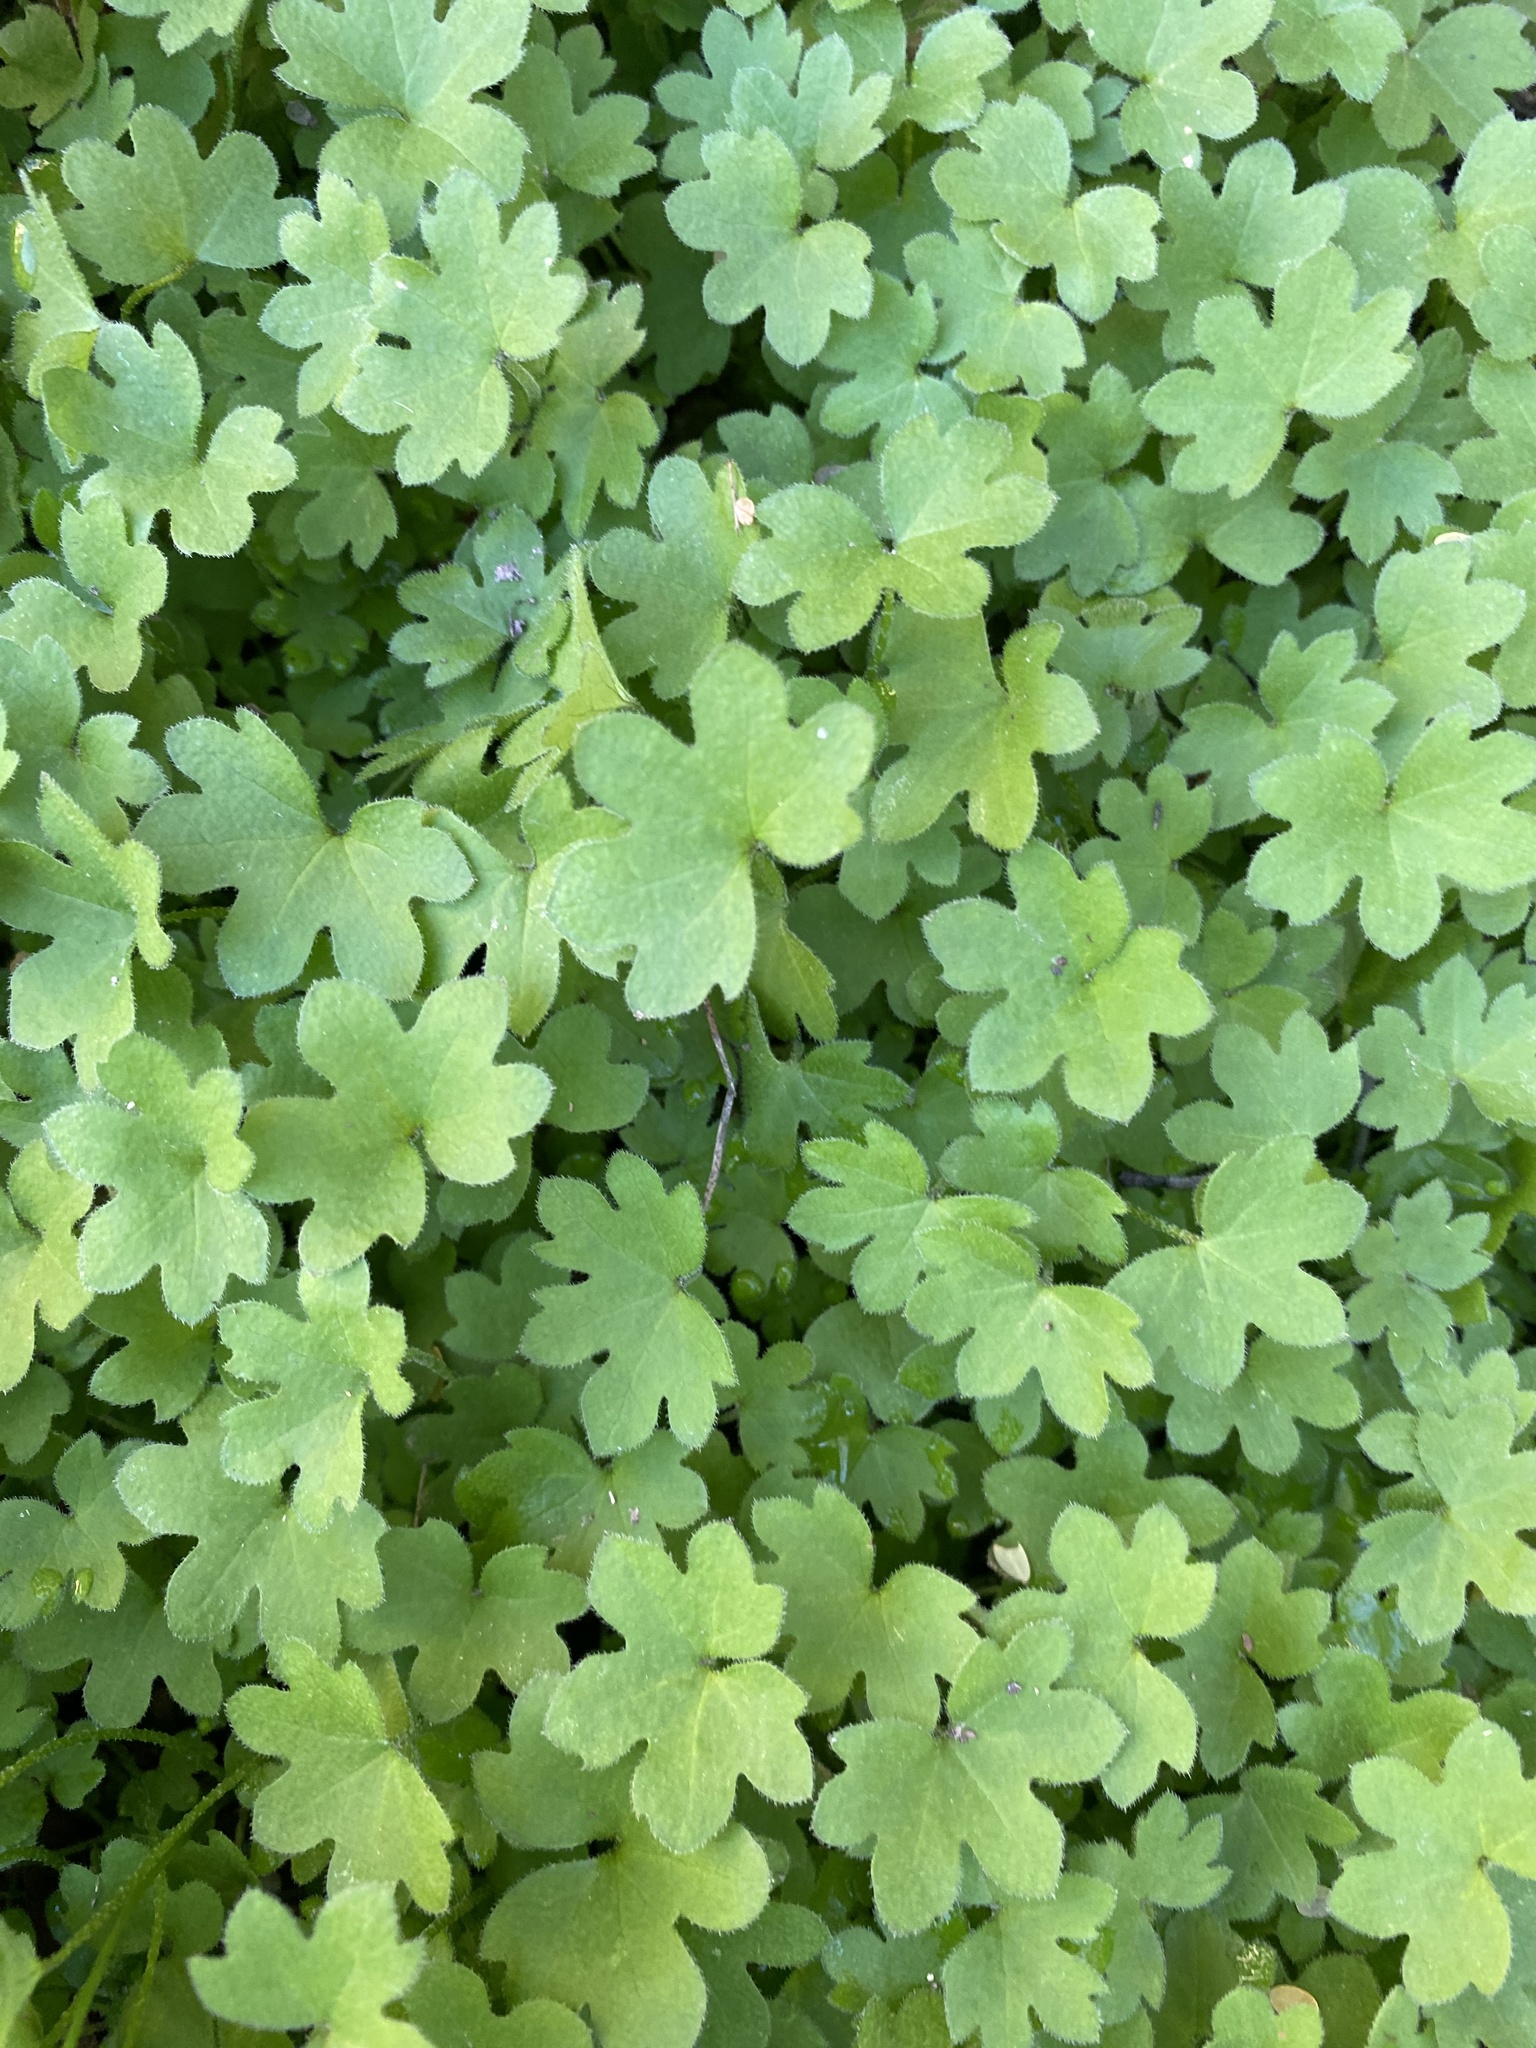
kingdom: Plantae
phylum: Tracheophyta
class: Magnoliopsida
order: Apiales
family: Apiaceae
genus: Bowlesia
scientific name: Bowlesia incana
